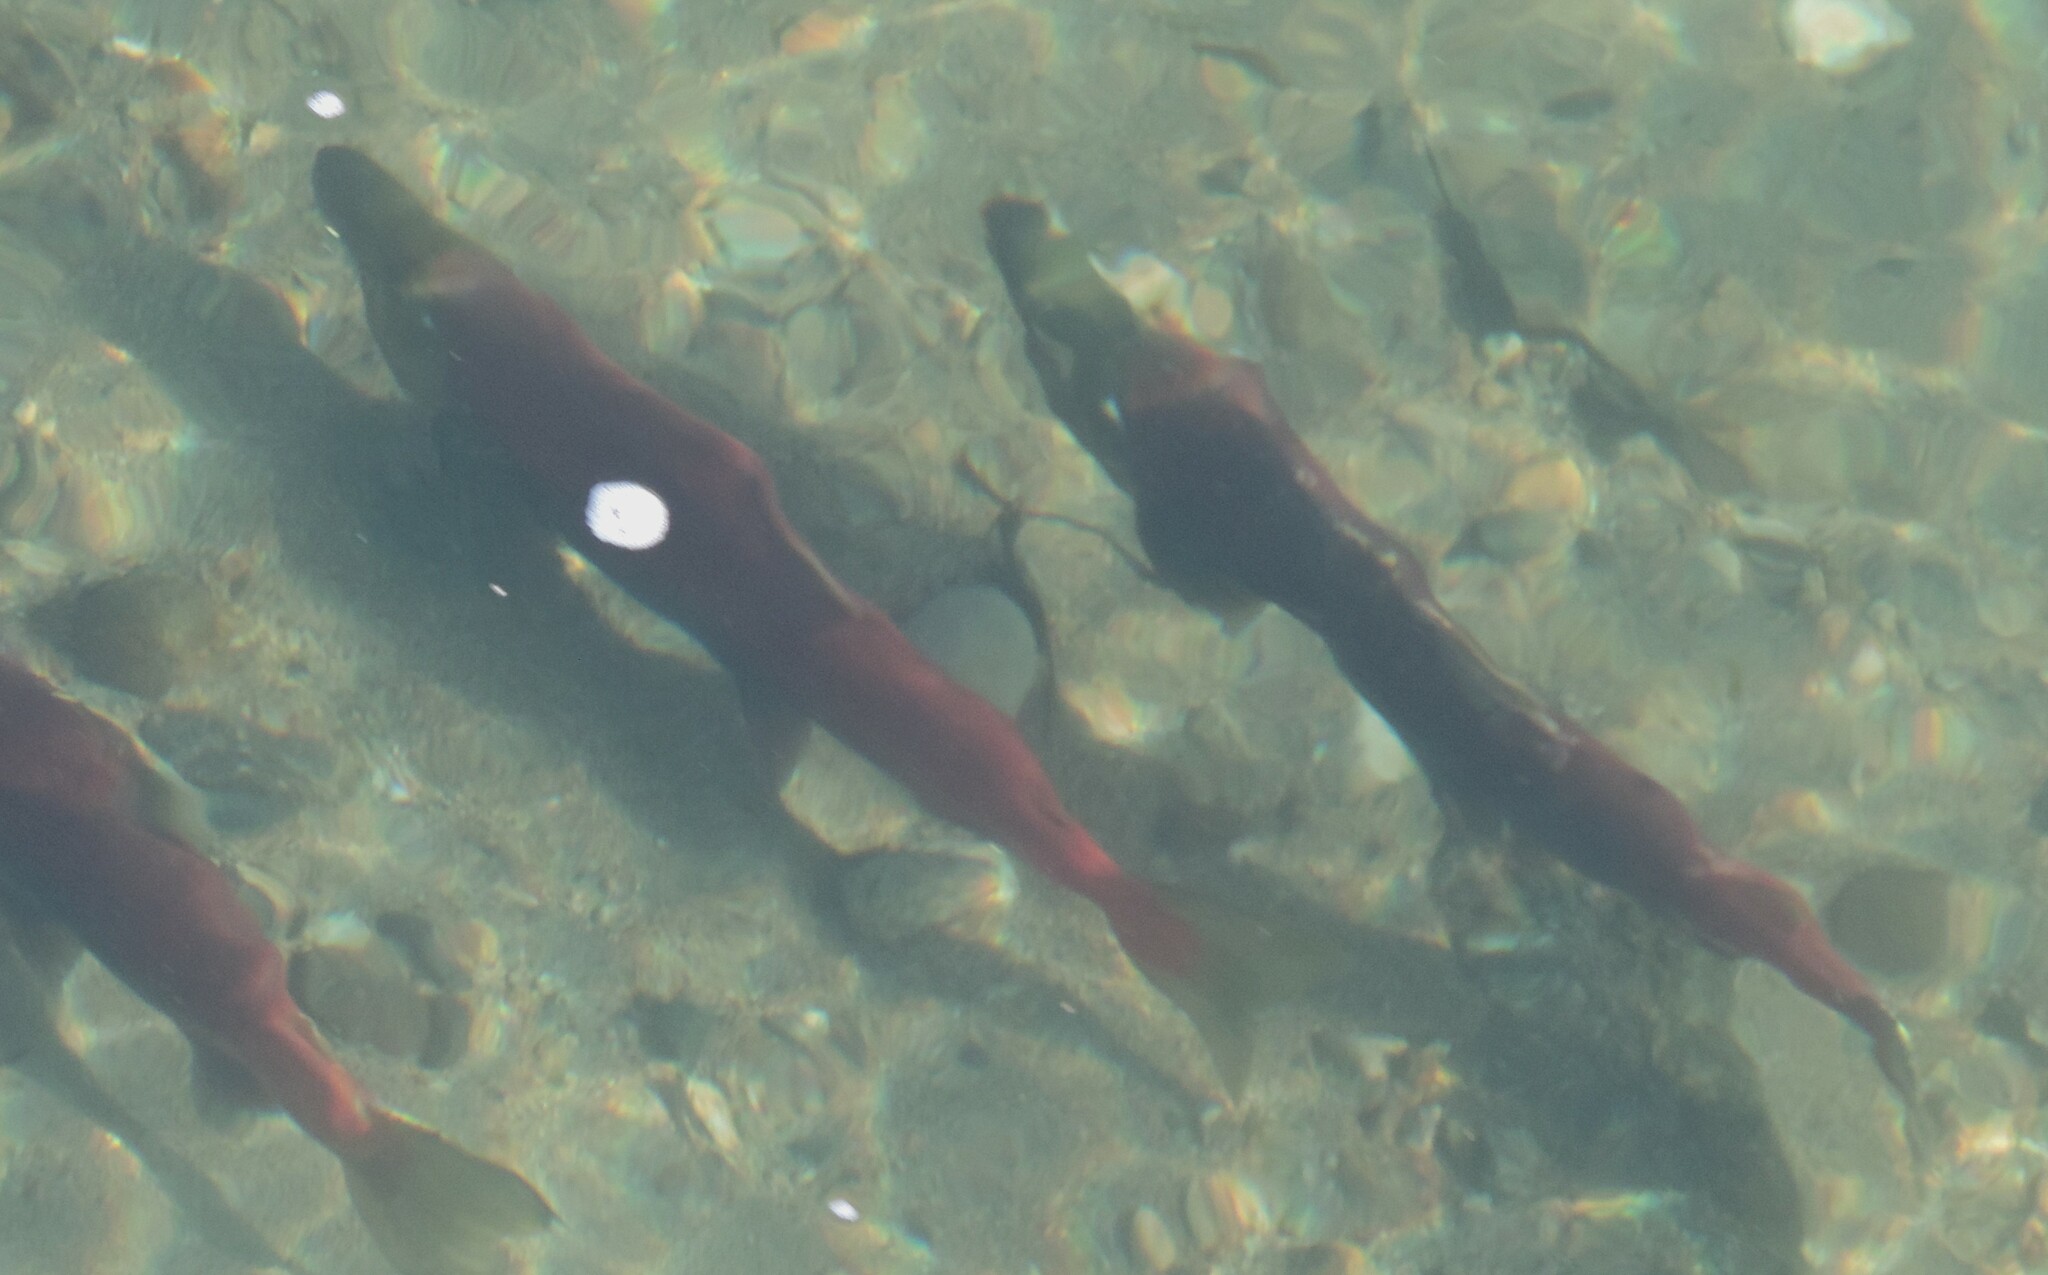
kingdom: Animalia
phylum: Chordata
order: Salmoniformes
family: Salmonidae
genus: Oncorhynchus
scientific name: Oncorhynchus nerka
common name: Sockeye salmon
